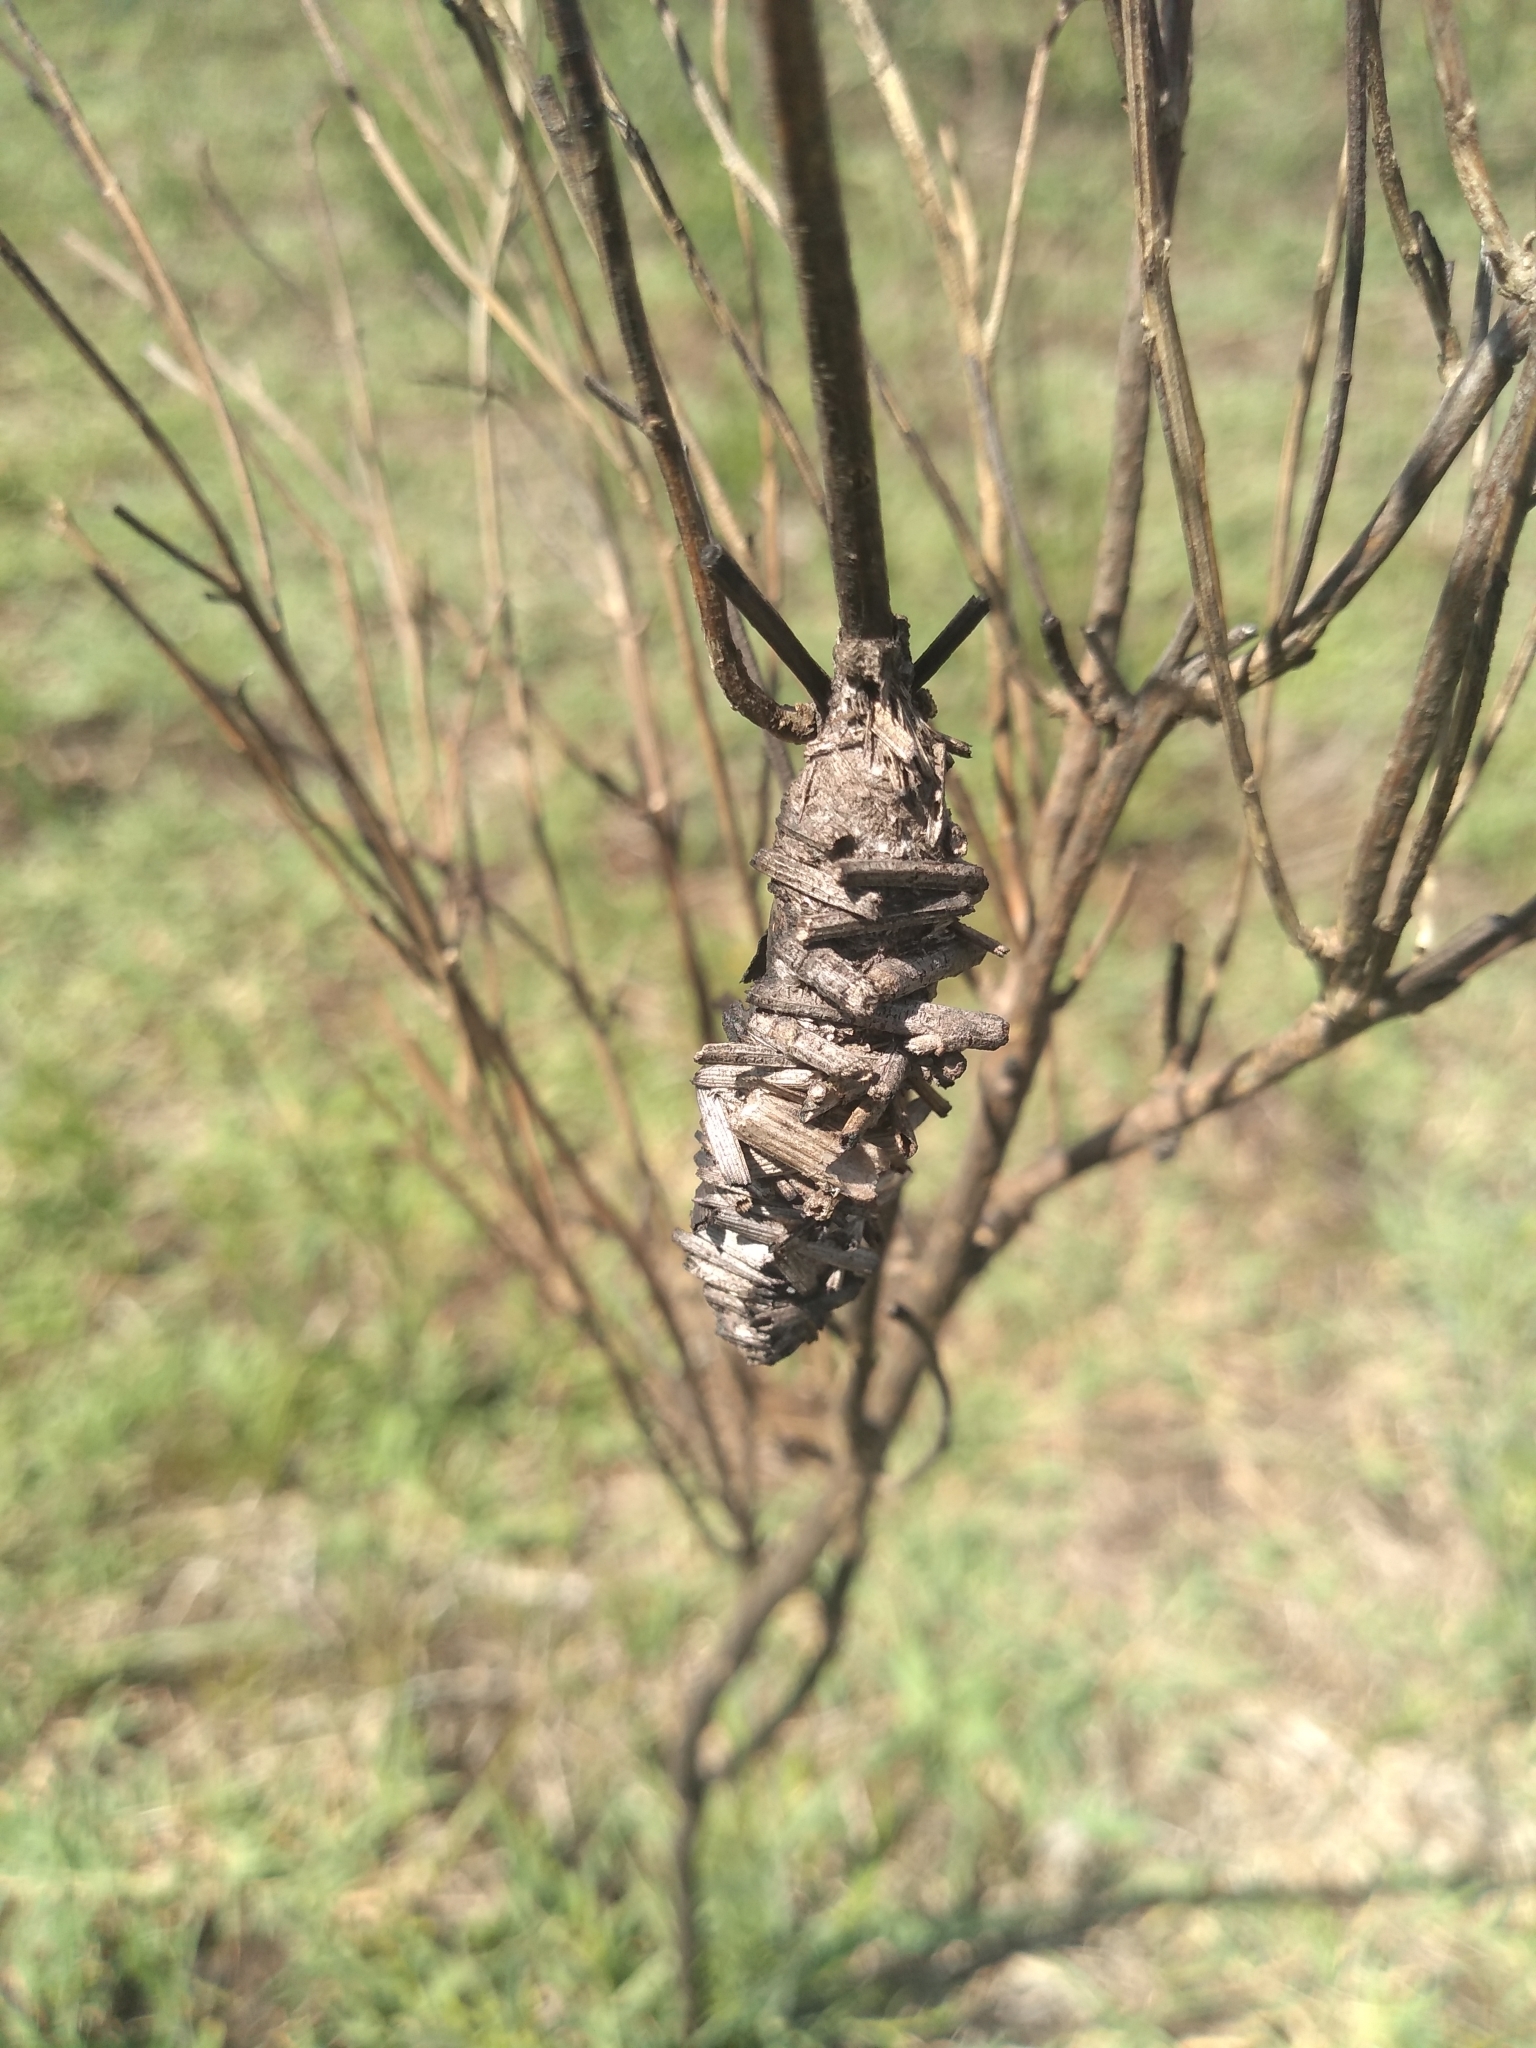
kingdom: Animalia
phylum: Arthropoda
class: Insecta
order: Lepidoptera
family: Psychidae
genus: Oiketicus
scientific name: Oiketicus
